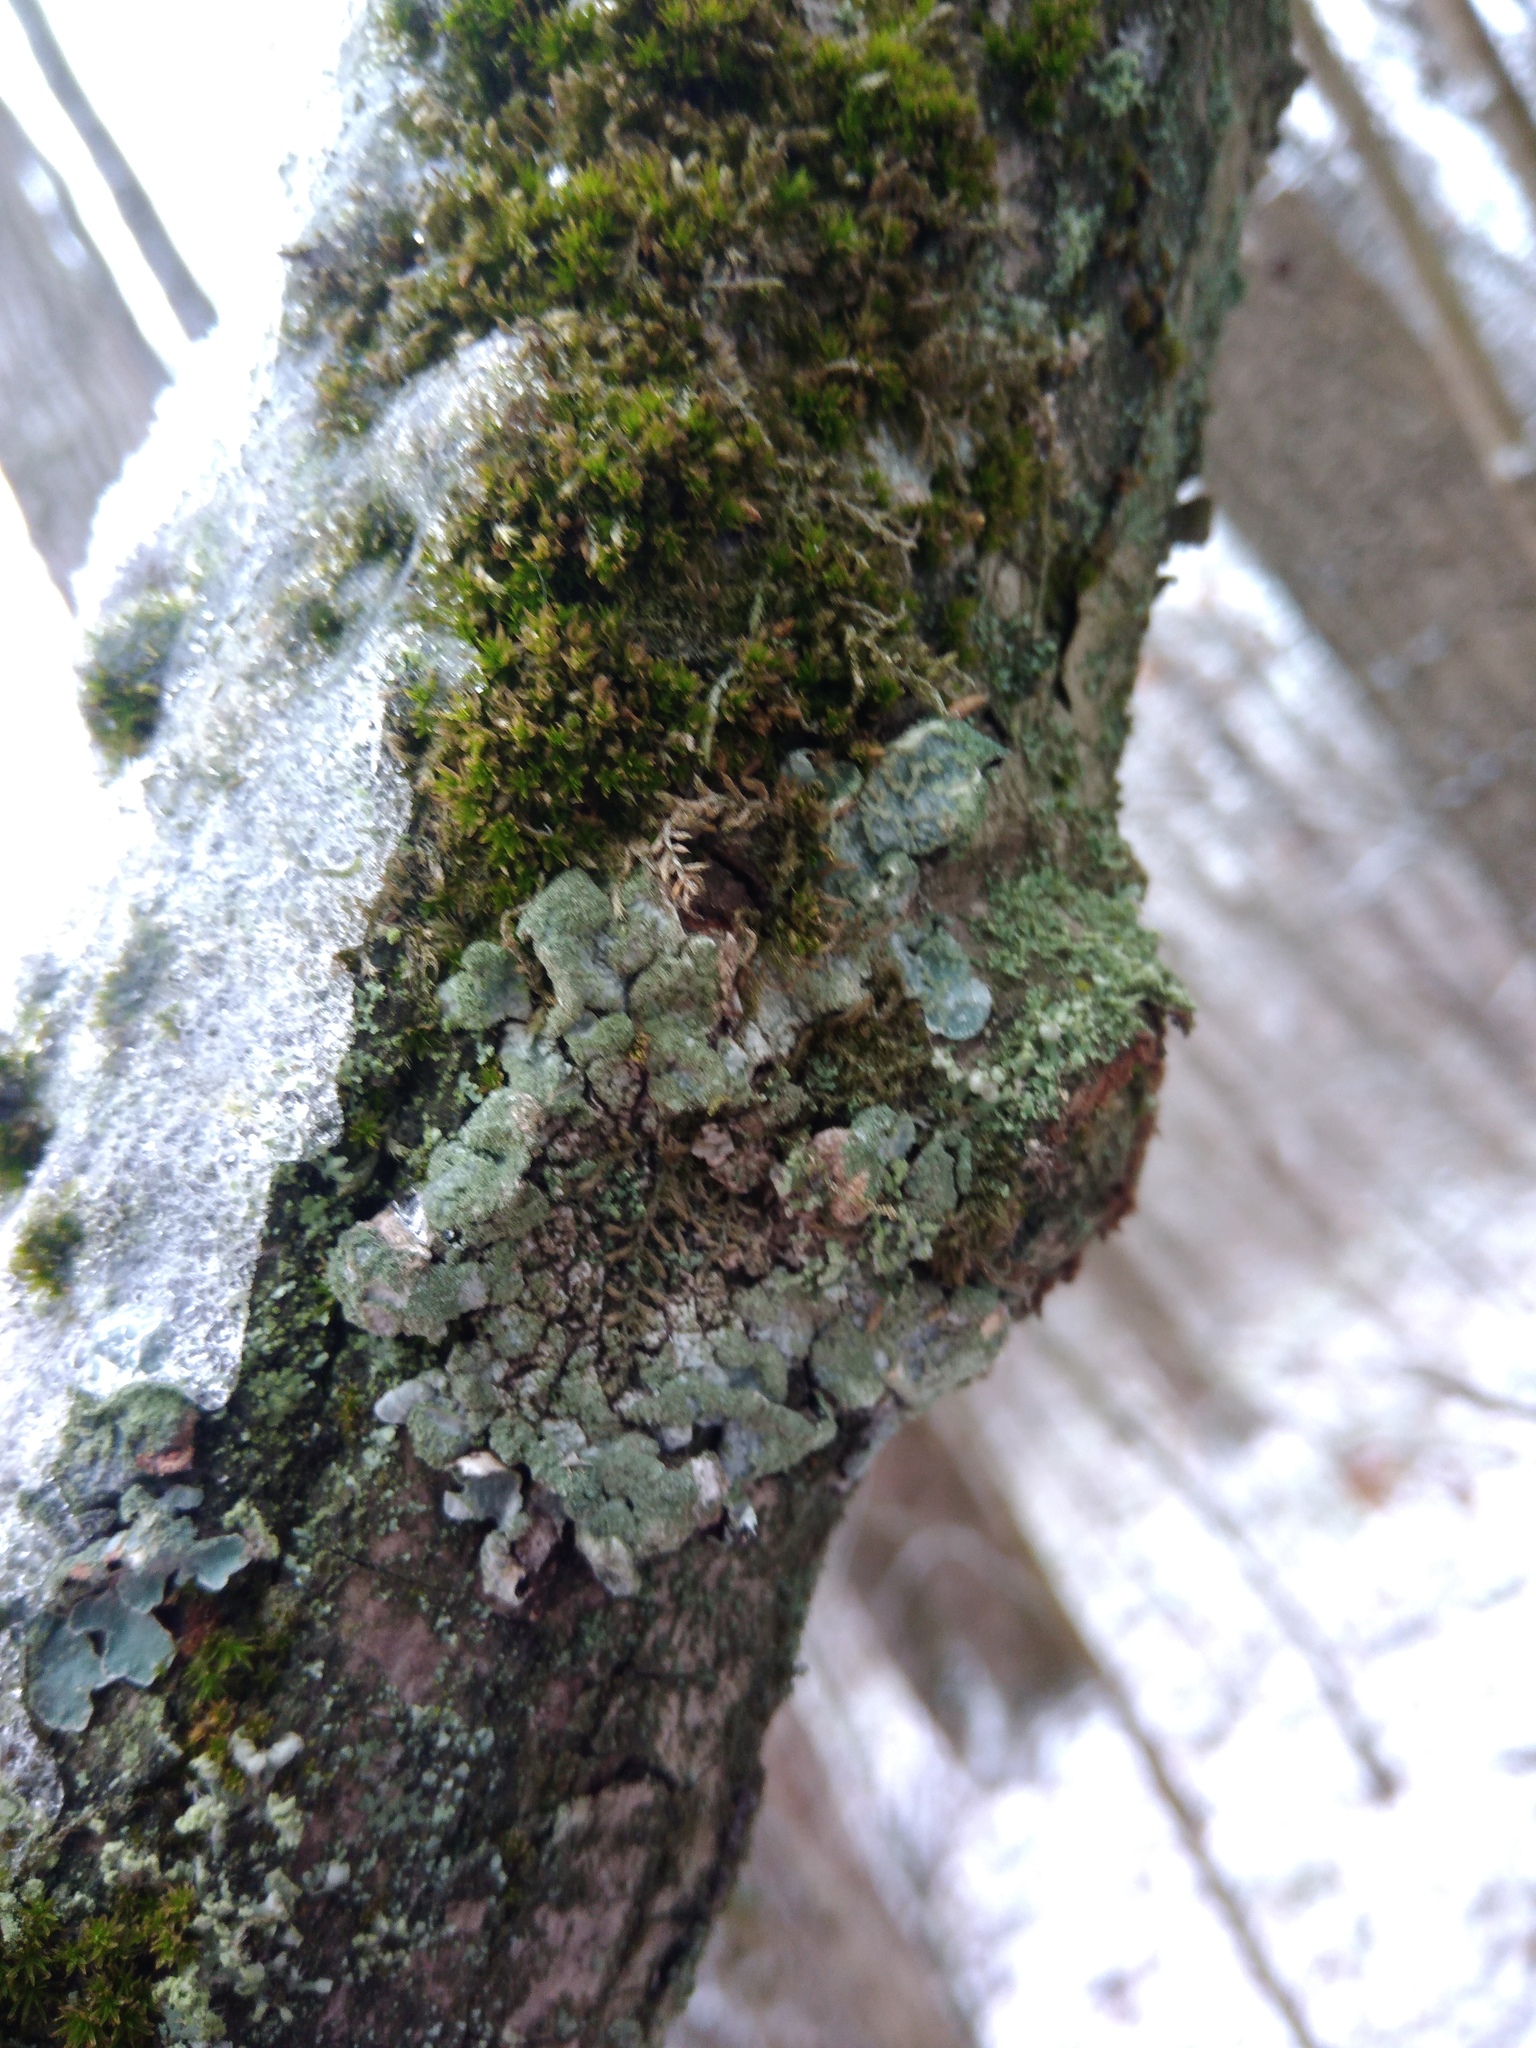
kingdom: Fungi
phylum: Ascomycota
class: Lecanoromycetes
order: Lecanorales
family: Parmeliaceae
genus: Parmelia
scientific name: Parmelia sulcata
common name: Netted shield lichen
